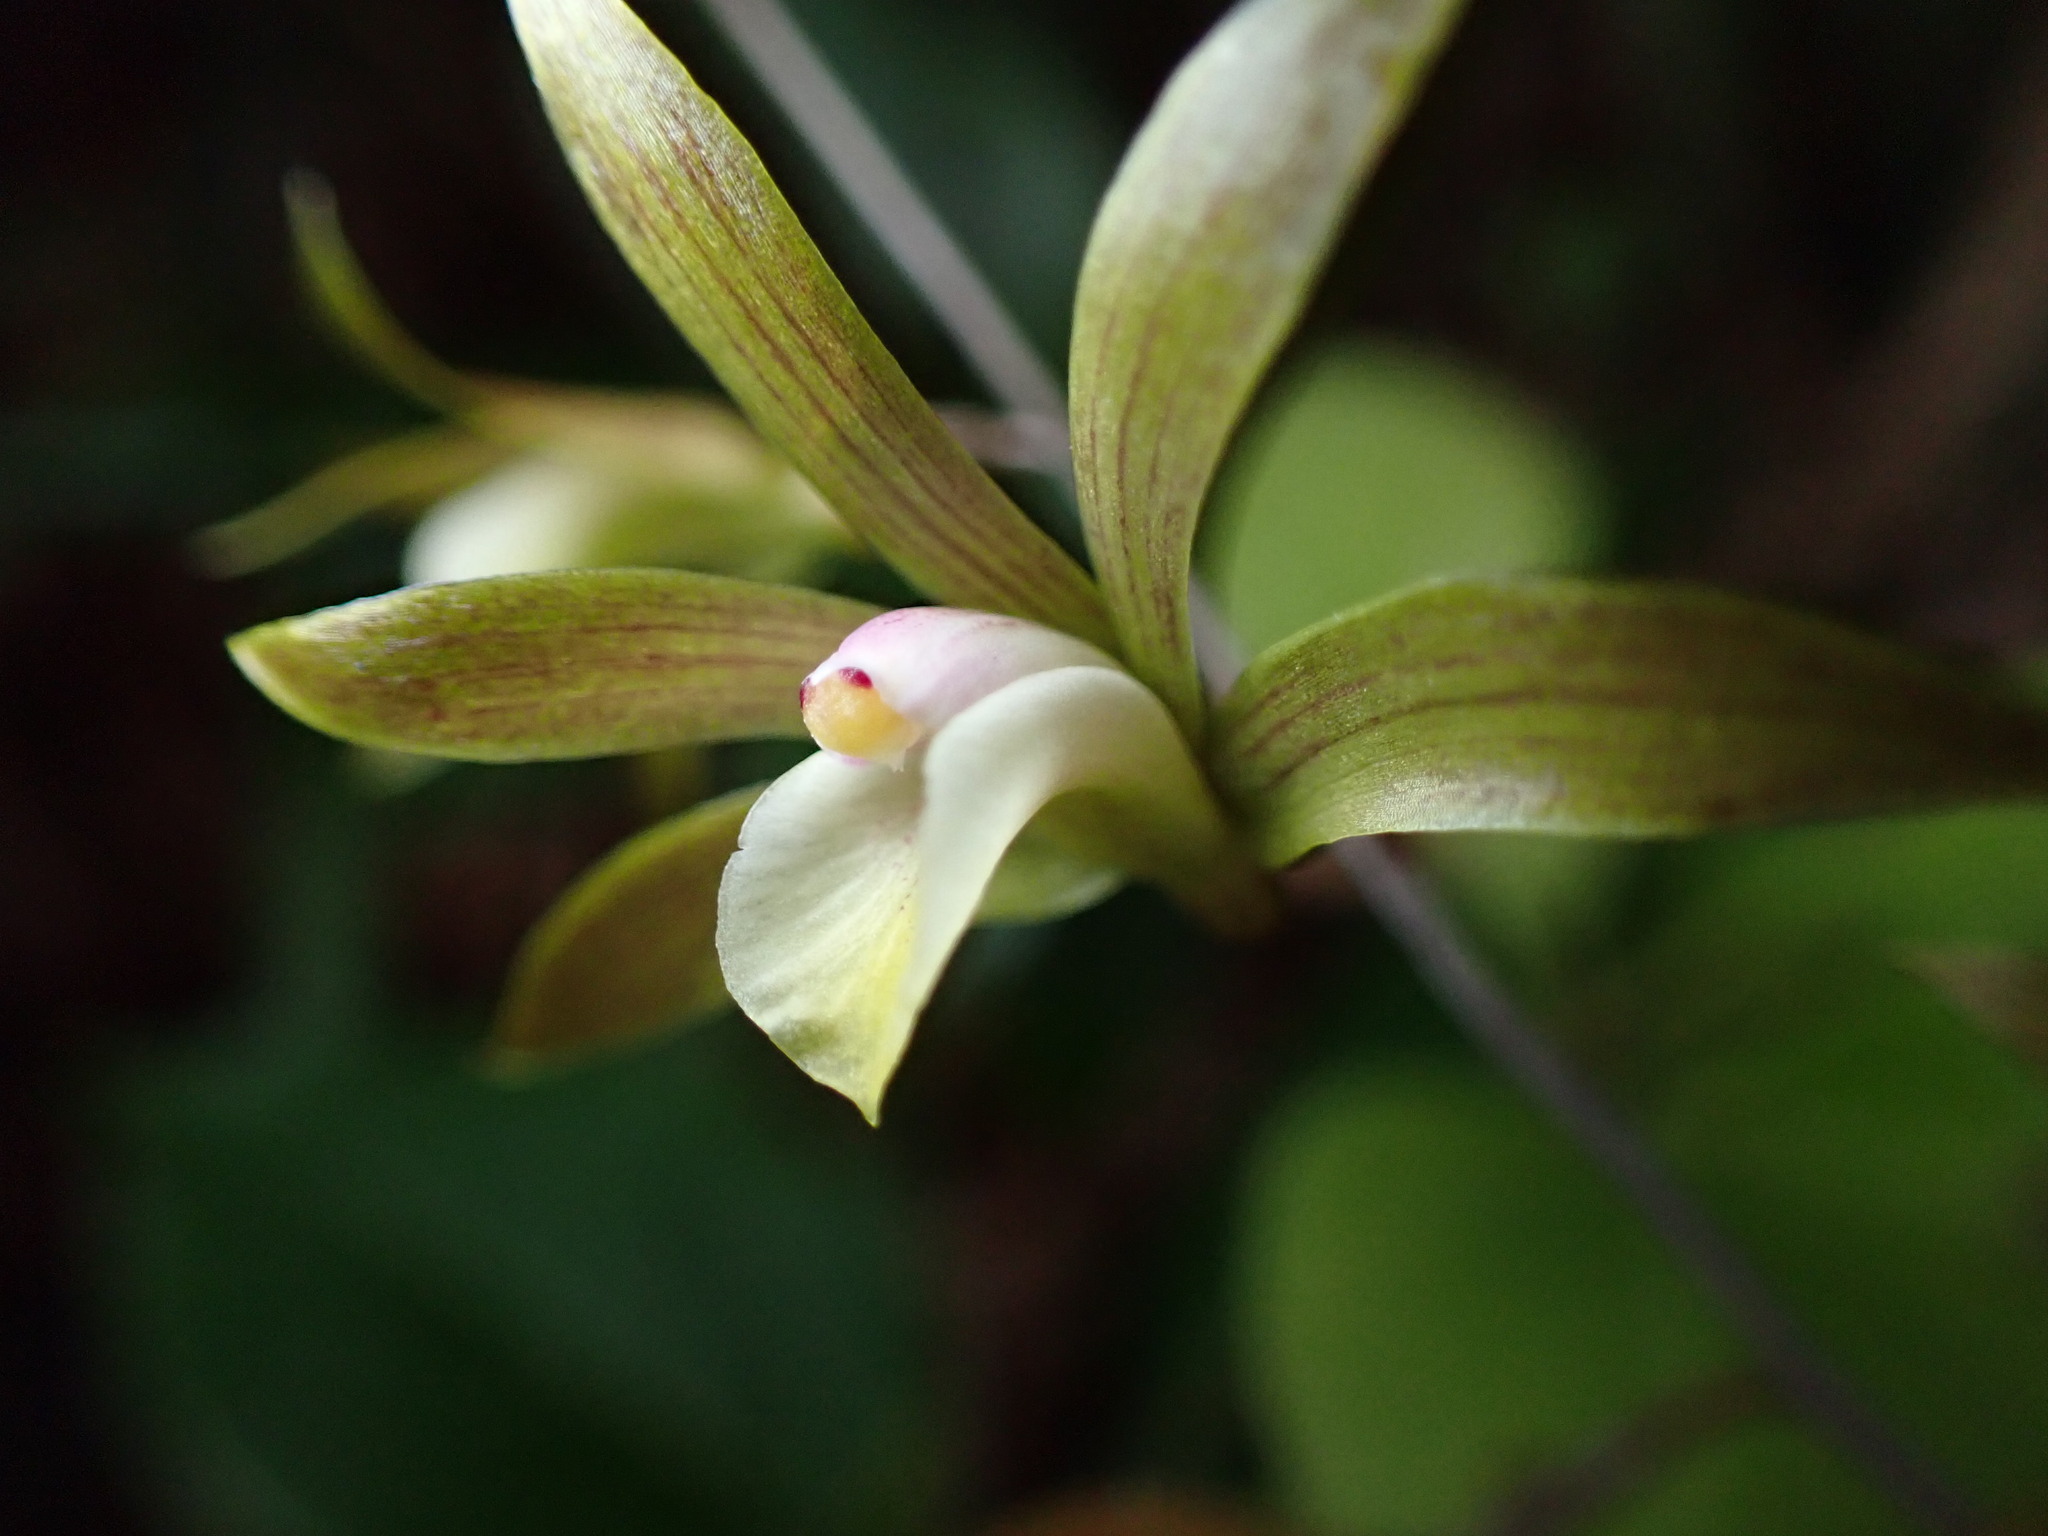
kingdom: Plantae
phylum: Tracheophyta
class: Liliopsida
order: Asparagales
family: Orchidaceae
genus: Ania
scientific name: Ania hongkongensis
